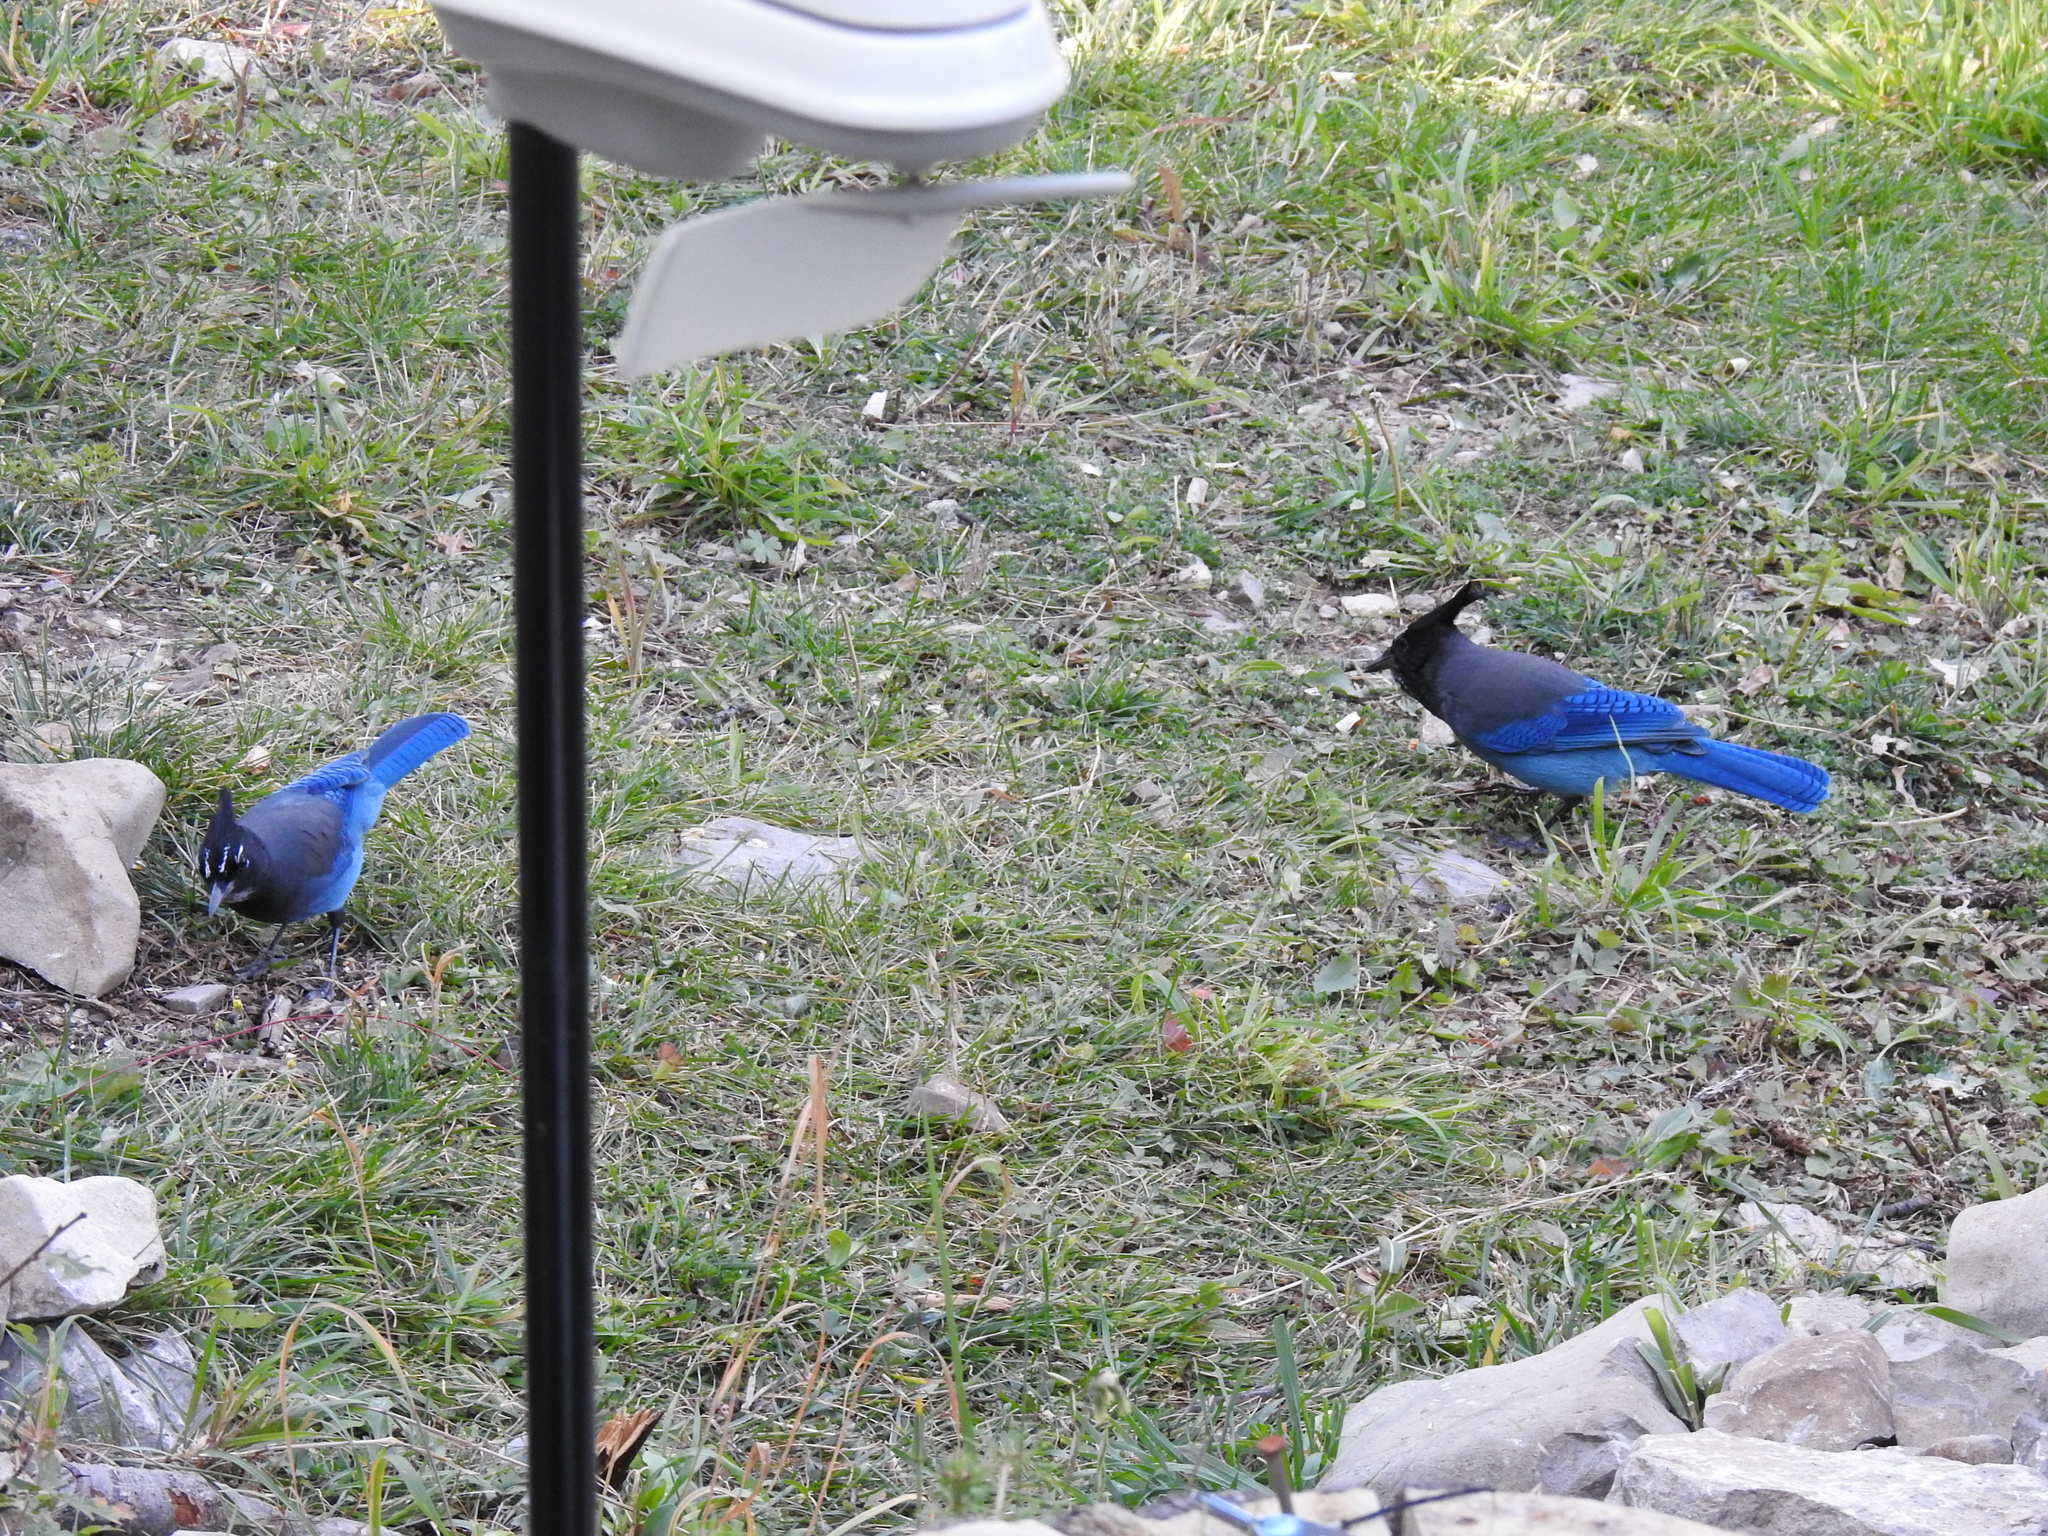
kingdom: Animalia
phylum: Chordata
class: Aves
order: Passeriformes
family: Corvidae
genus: Cyanocitta
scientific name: Cyanocitta stelleri
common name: Steller's jay
